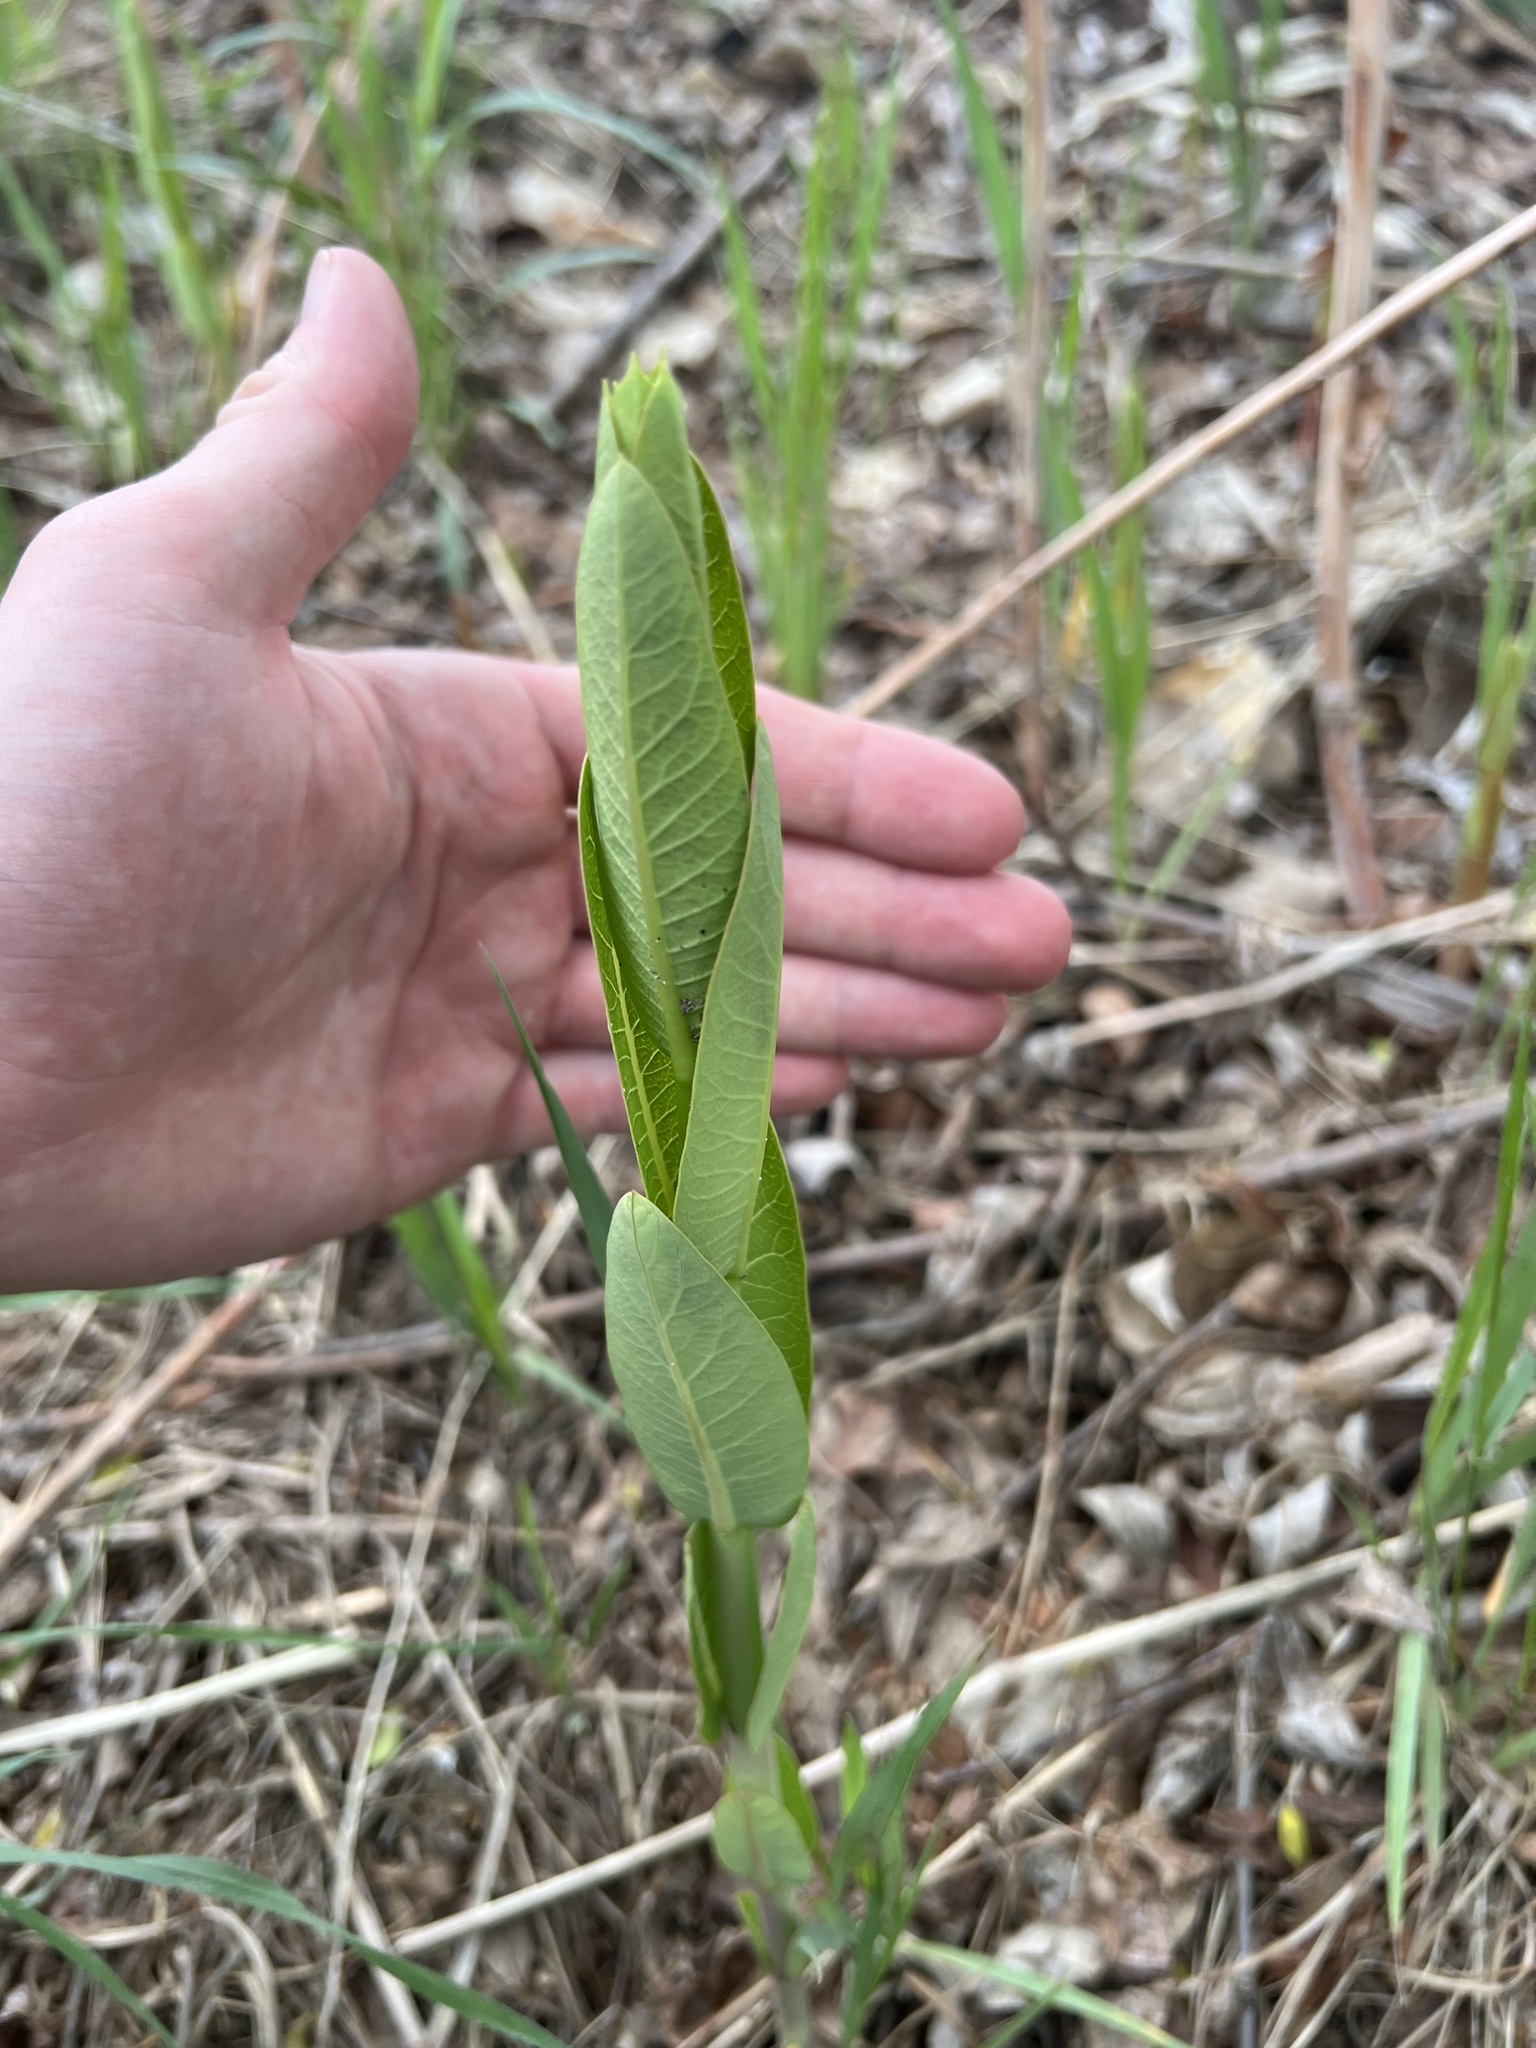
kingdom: Plantae
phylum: Tracheophyta
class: Magnoliopsida
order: Gentianales
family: Apocynaceae
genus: Apocynum
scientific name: Apocynum cannabinum
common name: Hemp dogbane
